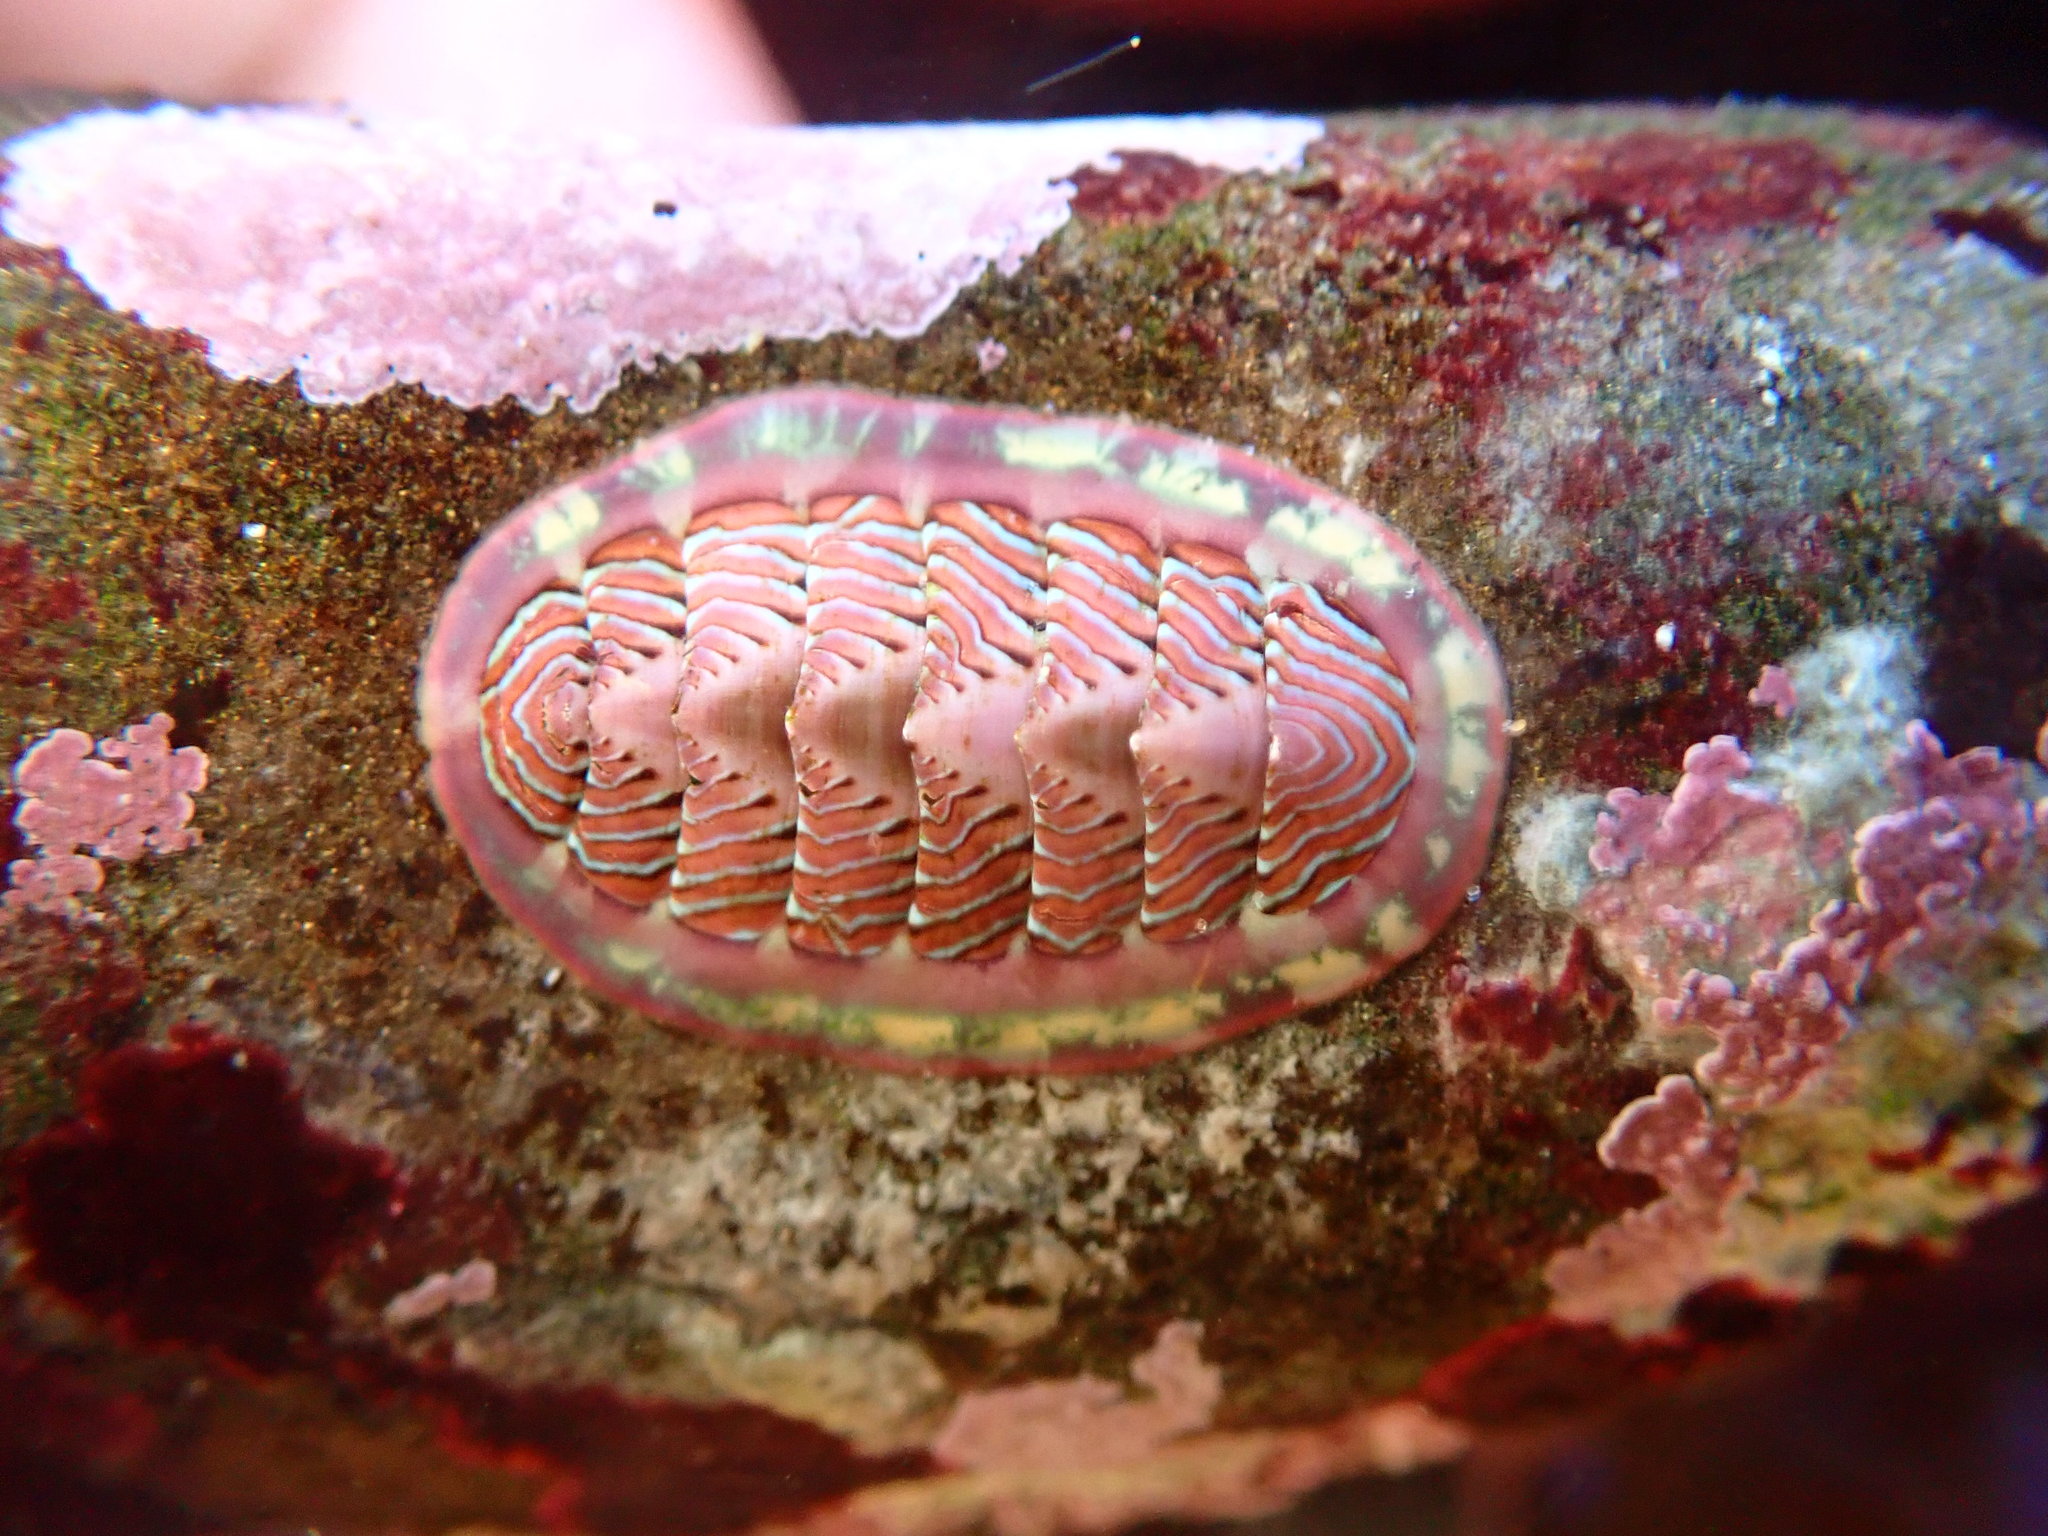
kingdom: Animalia
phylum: Mollusca
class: Polyplacophora
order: Chitonida
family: Tonicellidae
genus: Tonicella
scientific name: Tonicella lineata
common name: Lined chiton
